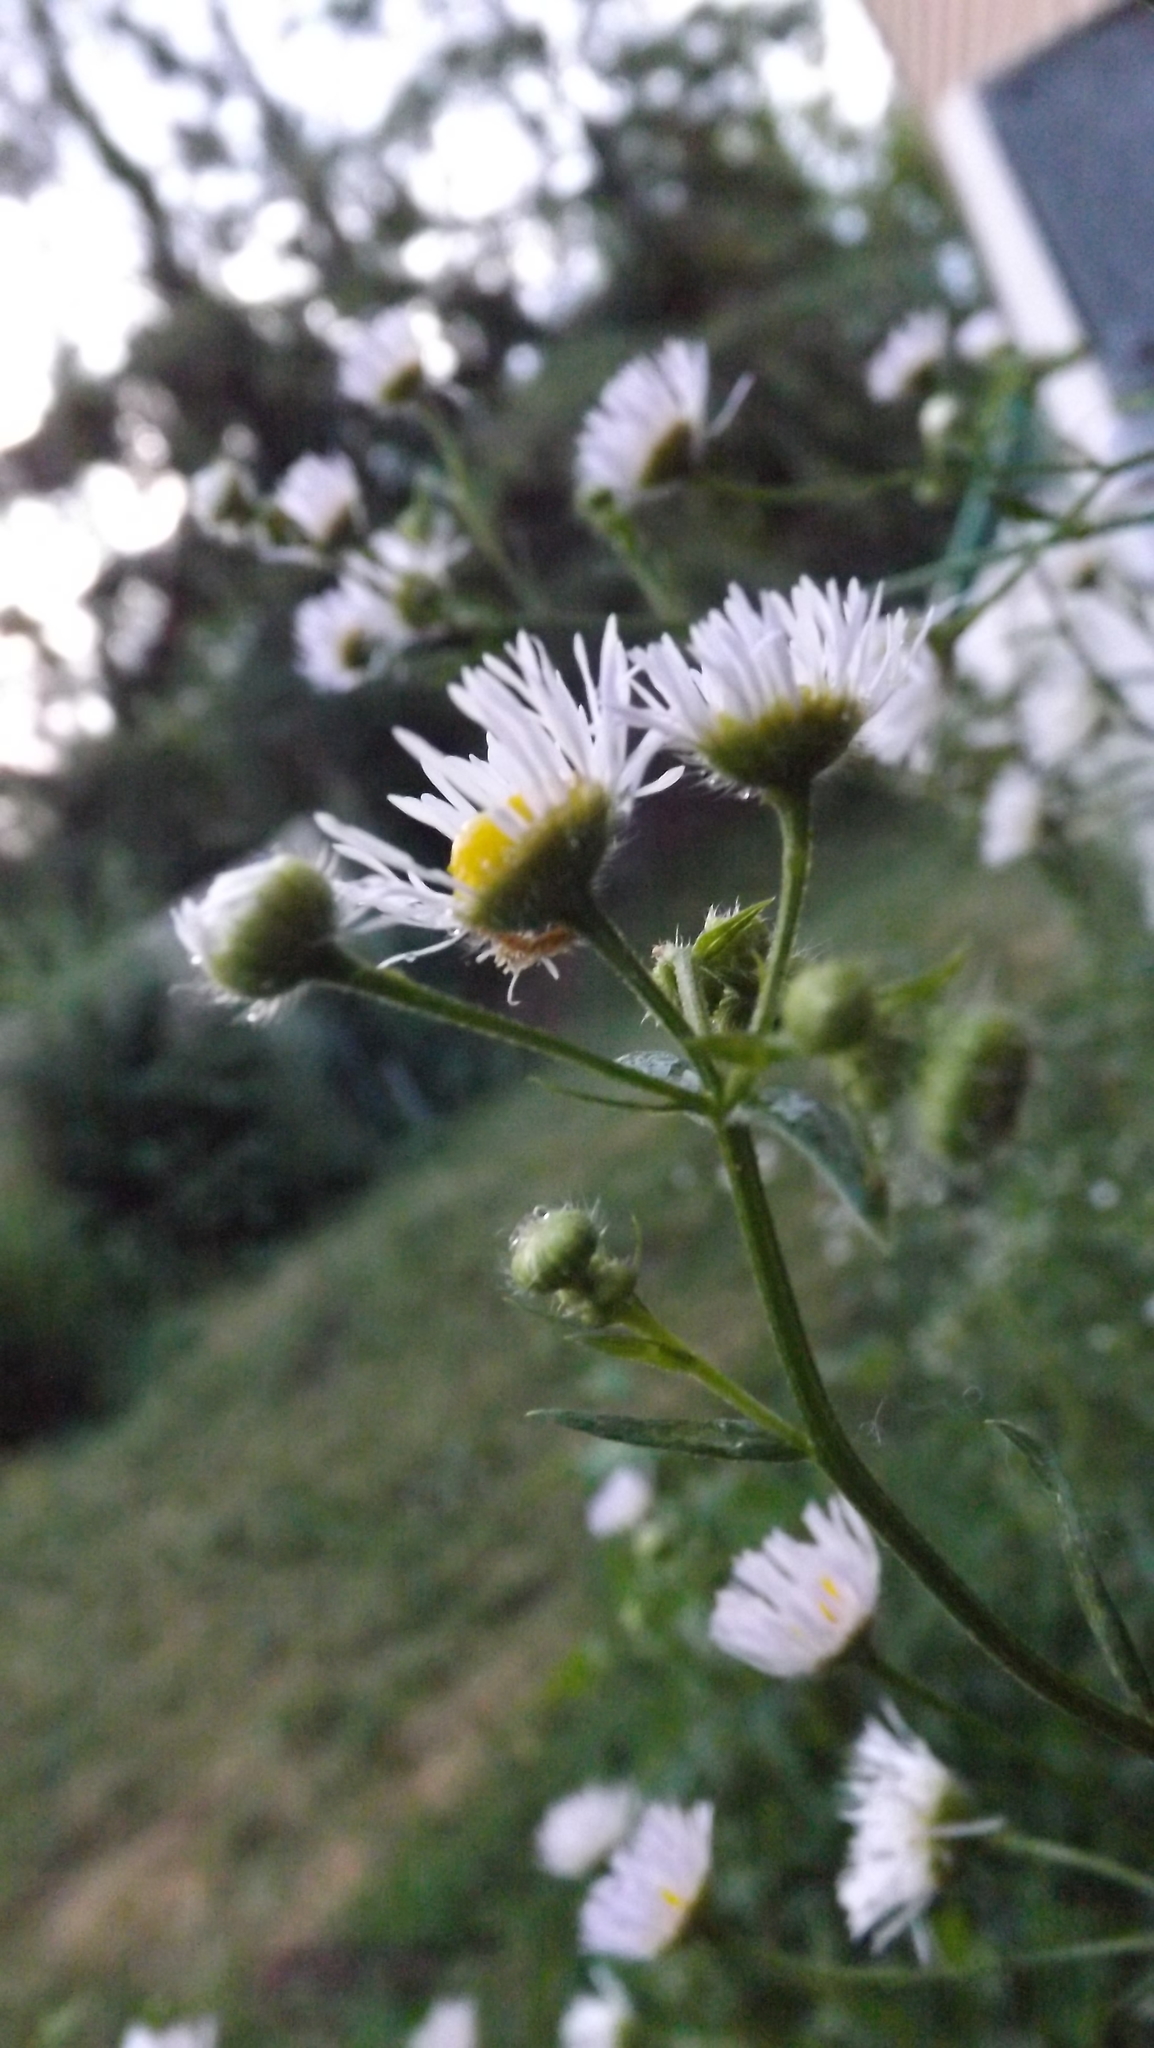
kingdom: Animalia
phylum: Arthropoda
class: Insecta
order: Lepidoptera
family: Geometridae
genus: Synchlora
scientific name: Synchlora aerata
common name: Wavy-lined emerald
